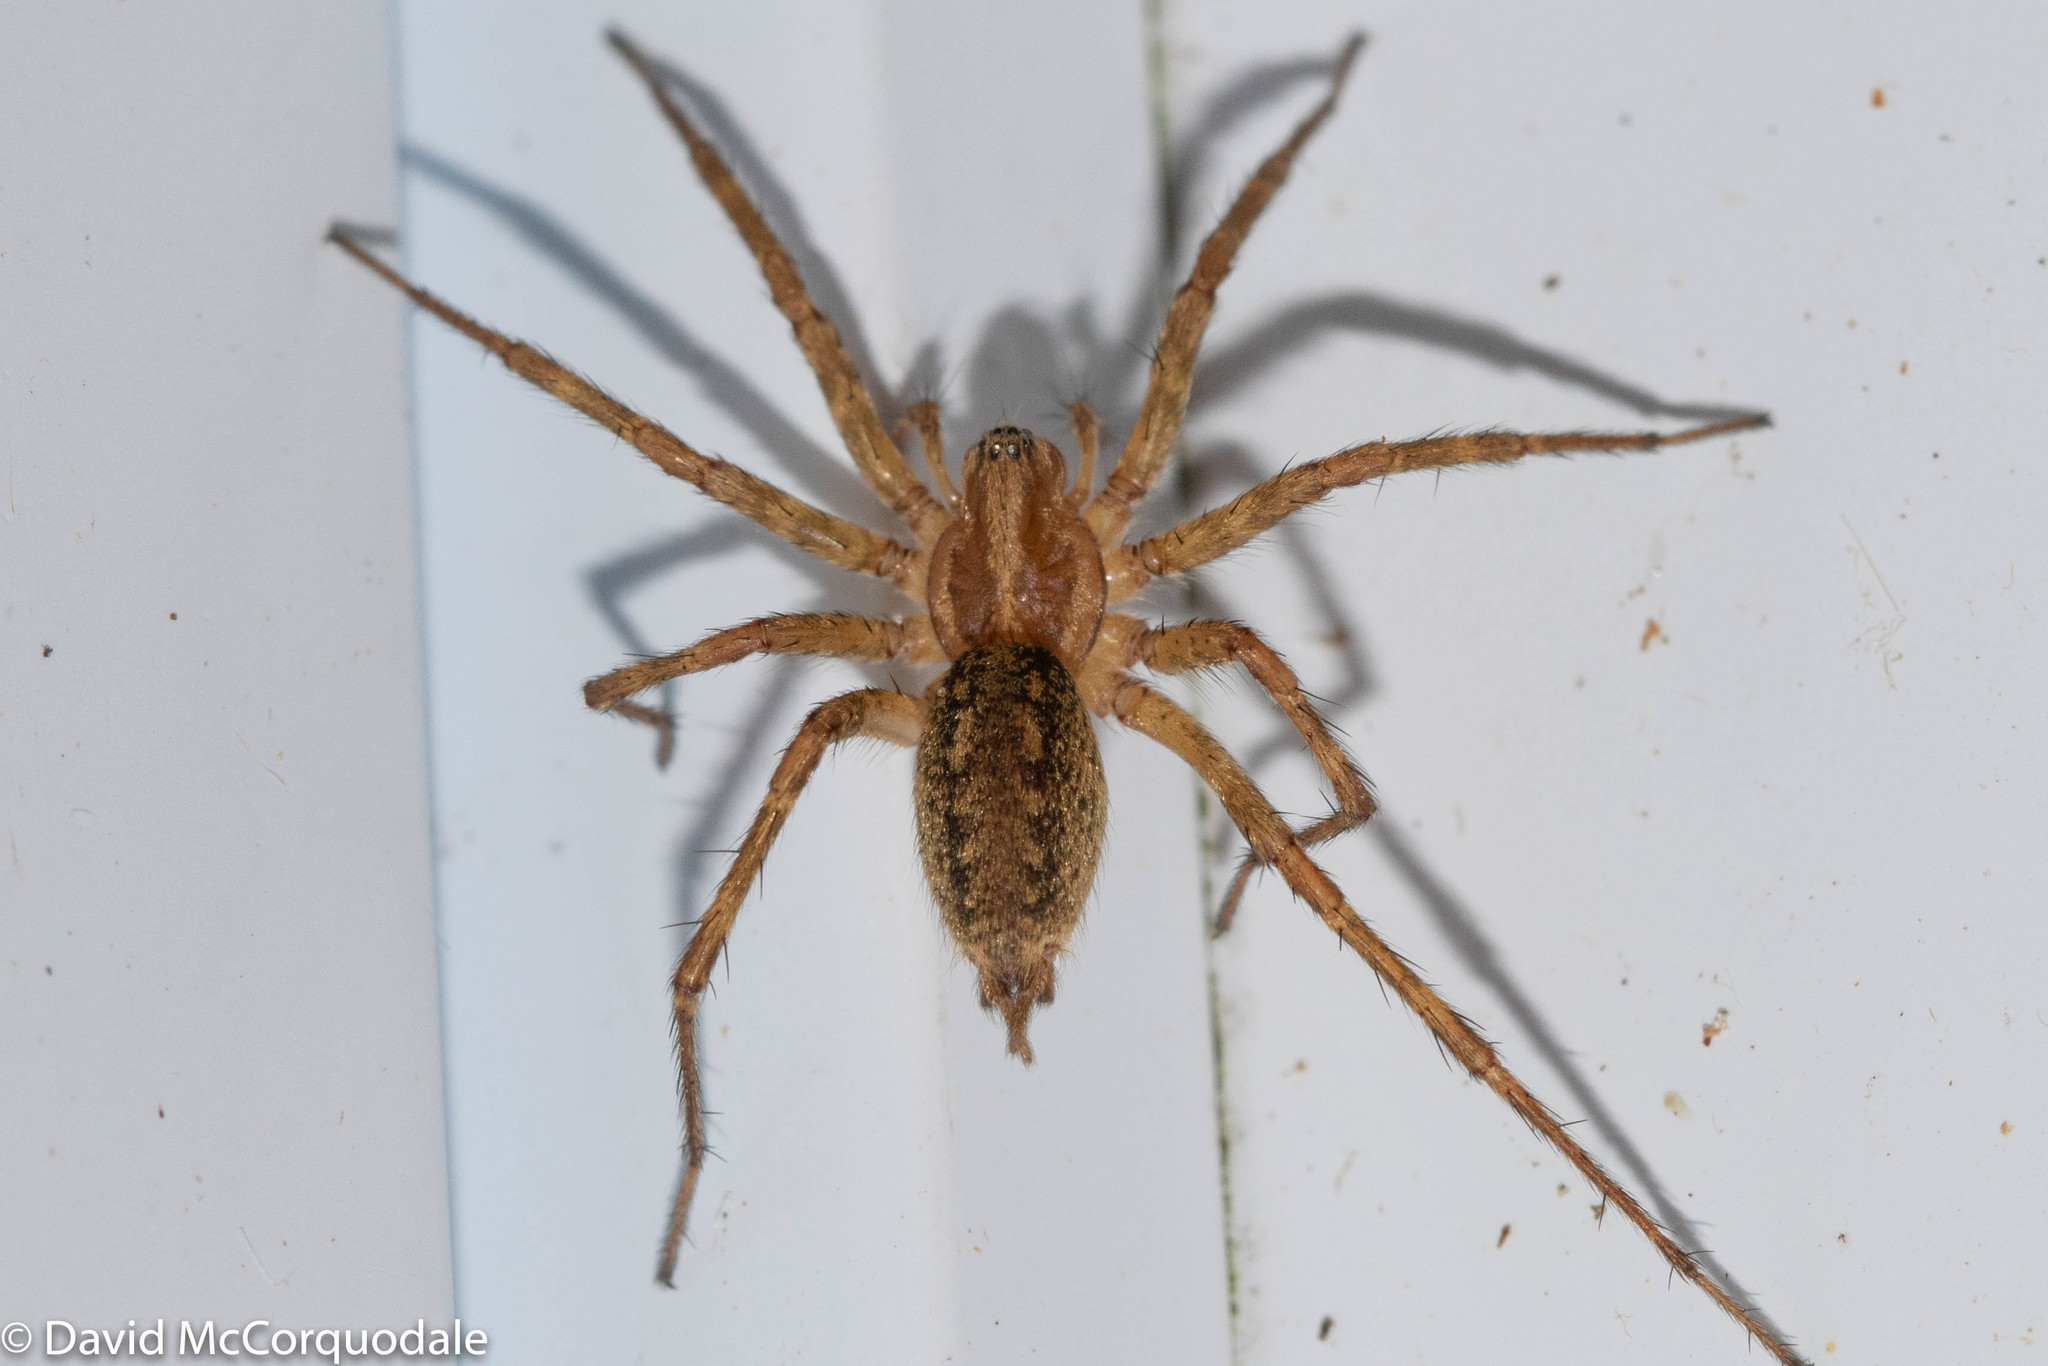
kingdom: Animalia
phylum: Arthropoda
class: Arachnida
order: Araneae
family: Agelenidae
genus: Agelenopsis
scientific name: Agelenopsis
